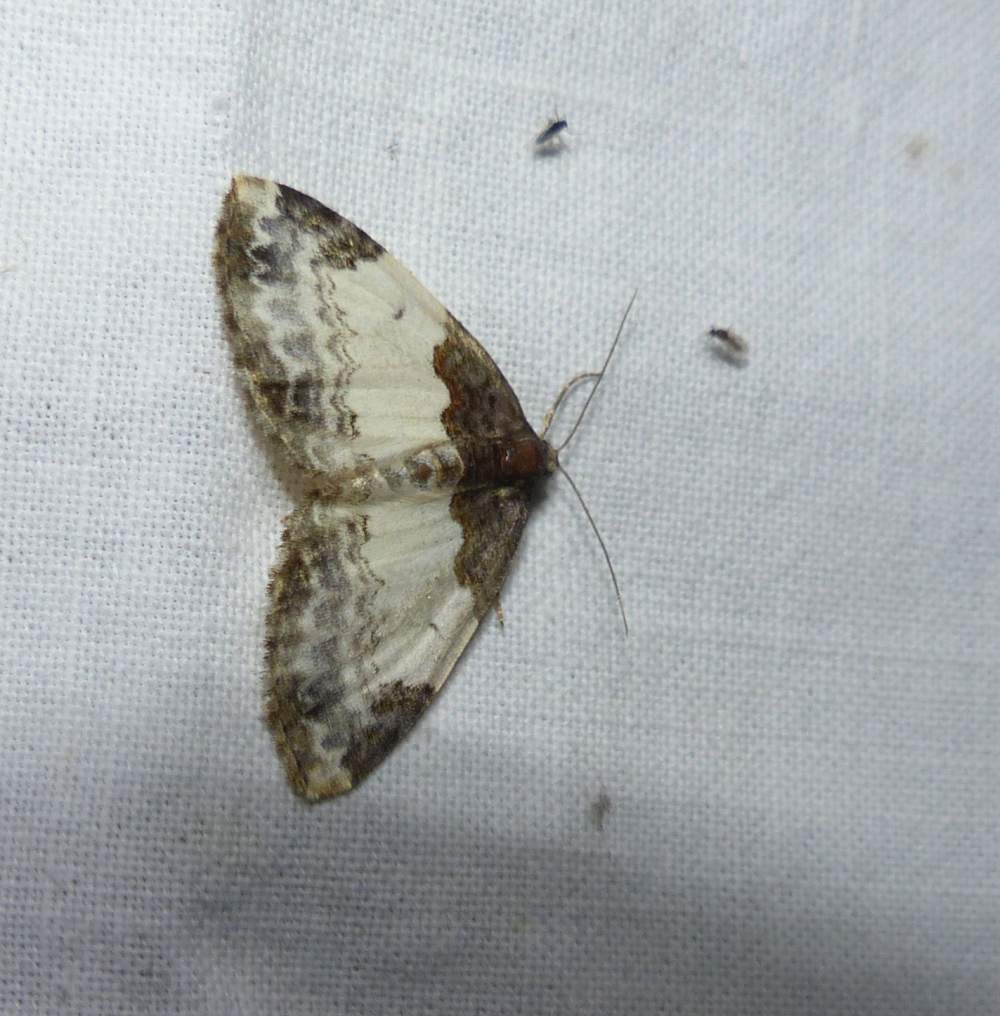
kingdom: Animalia
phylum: Arthropoda
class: Insecta
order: Lepidoptera
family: Geometridae
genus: Mesoleuca
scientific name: Mesoleuca ruficillata
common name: White-ribboned carpet moth
